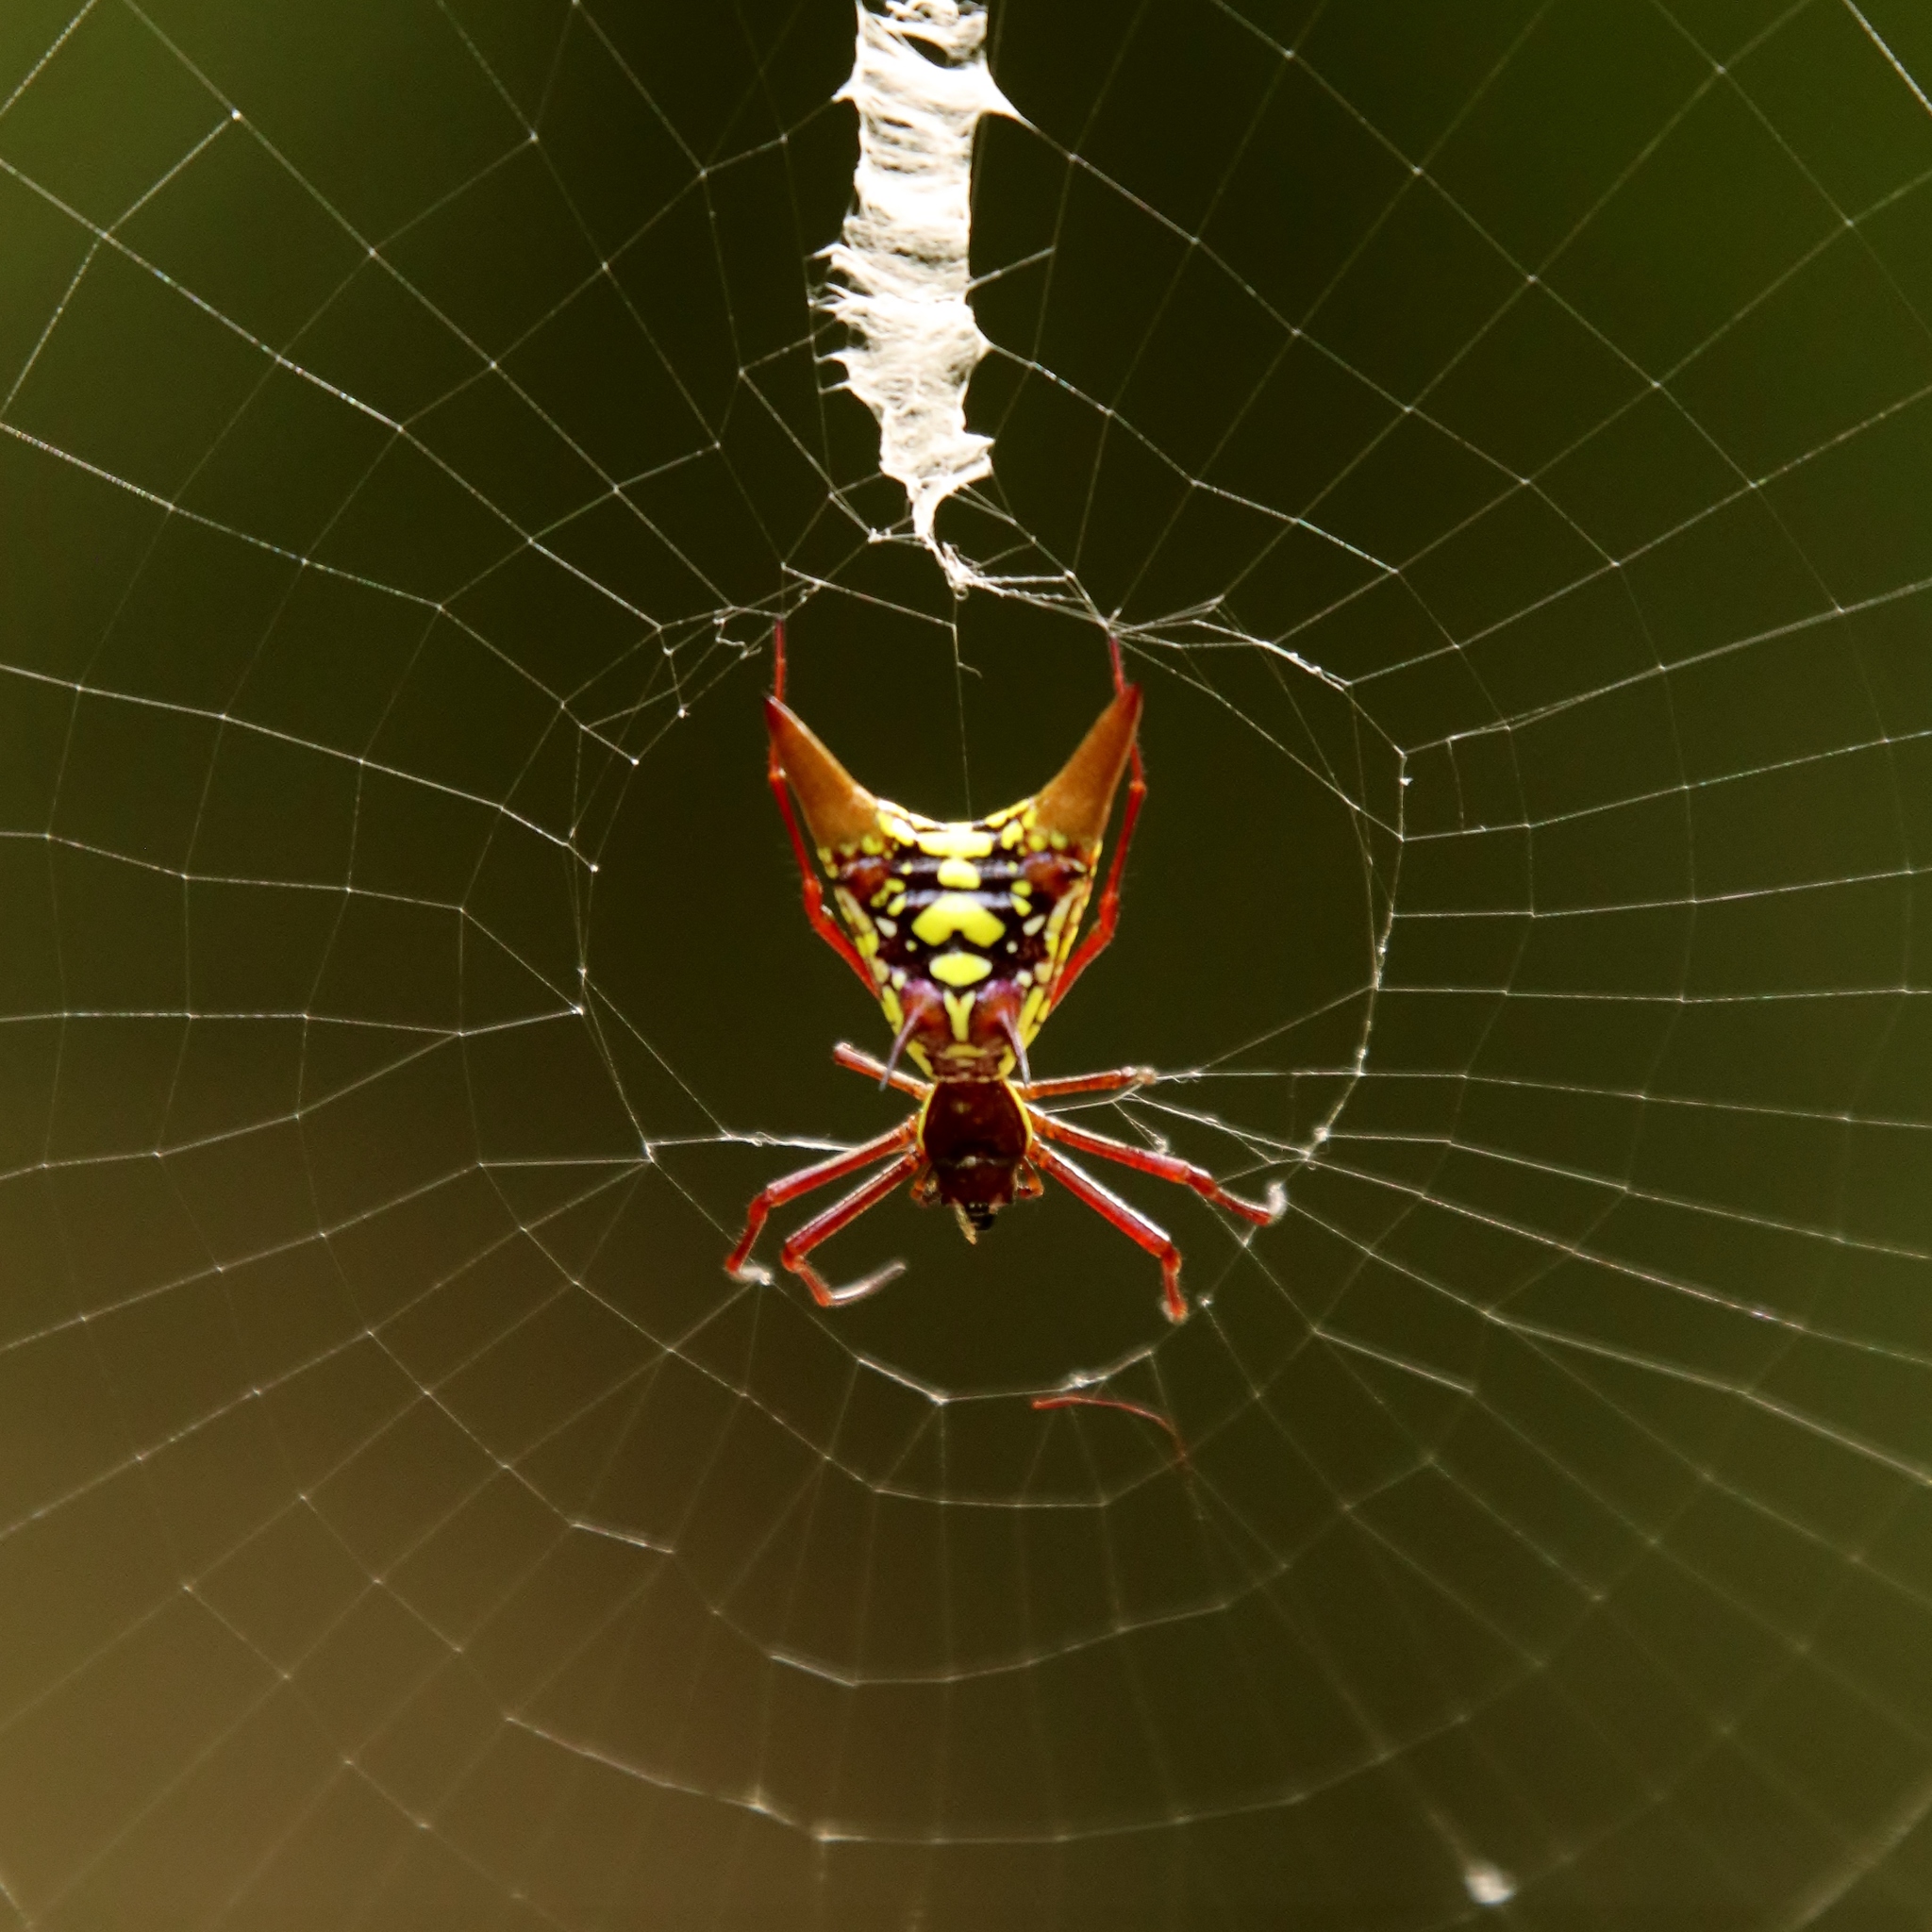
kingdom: Animalia
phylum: Arthropoda
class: Arachnida
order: Araneae
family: Araneidae
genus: Micrathena
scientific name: Micrathena sexspinosa
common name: Orb weavers
